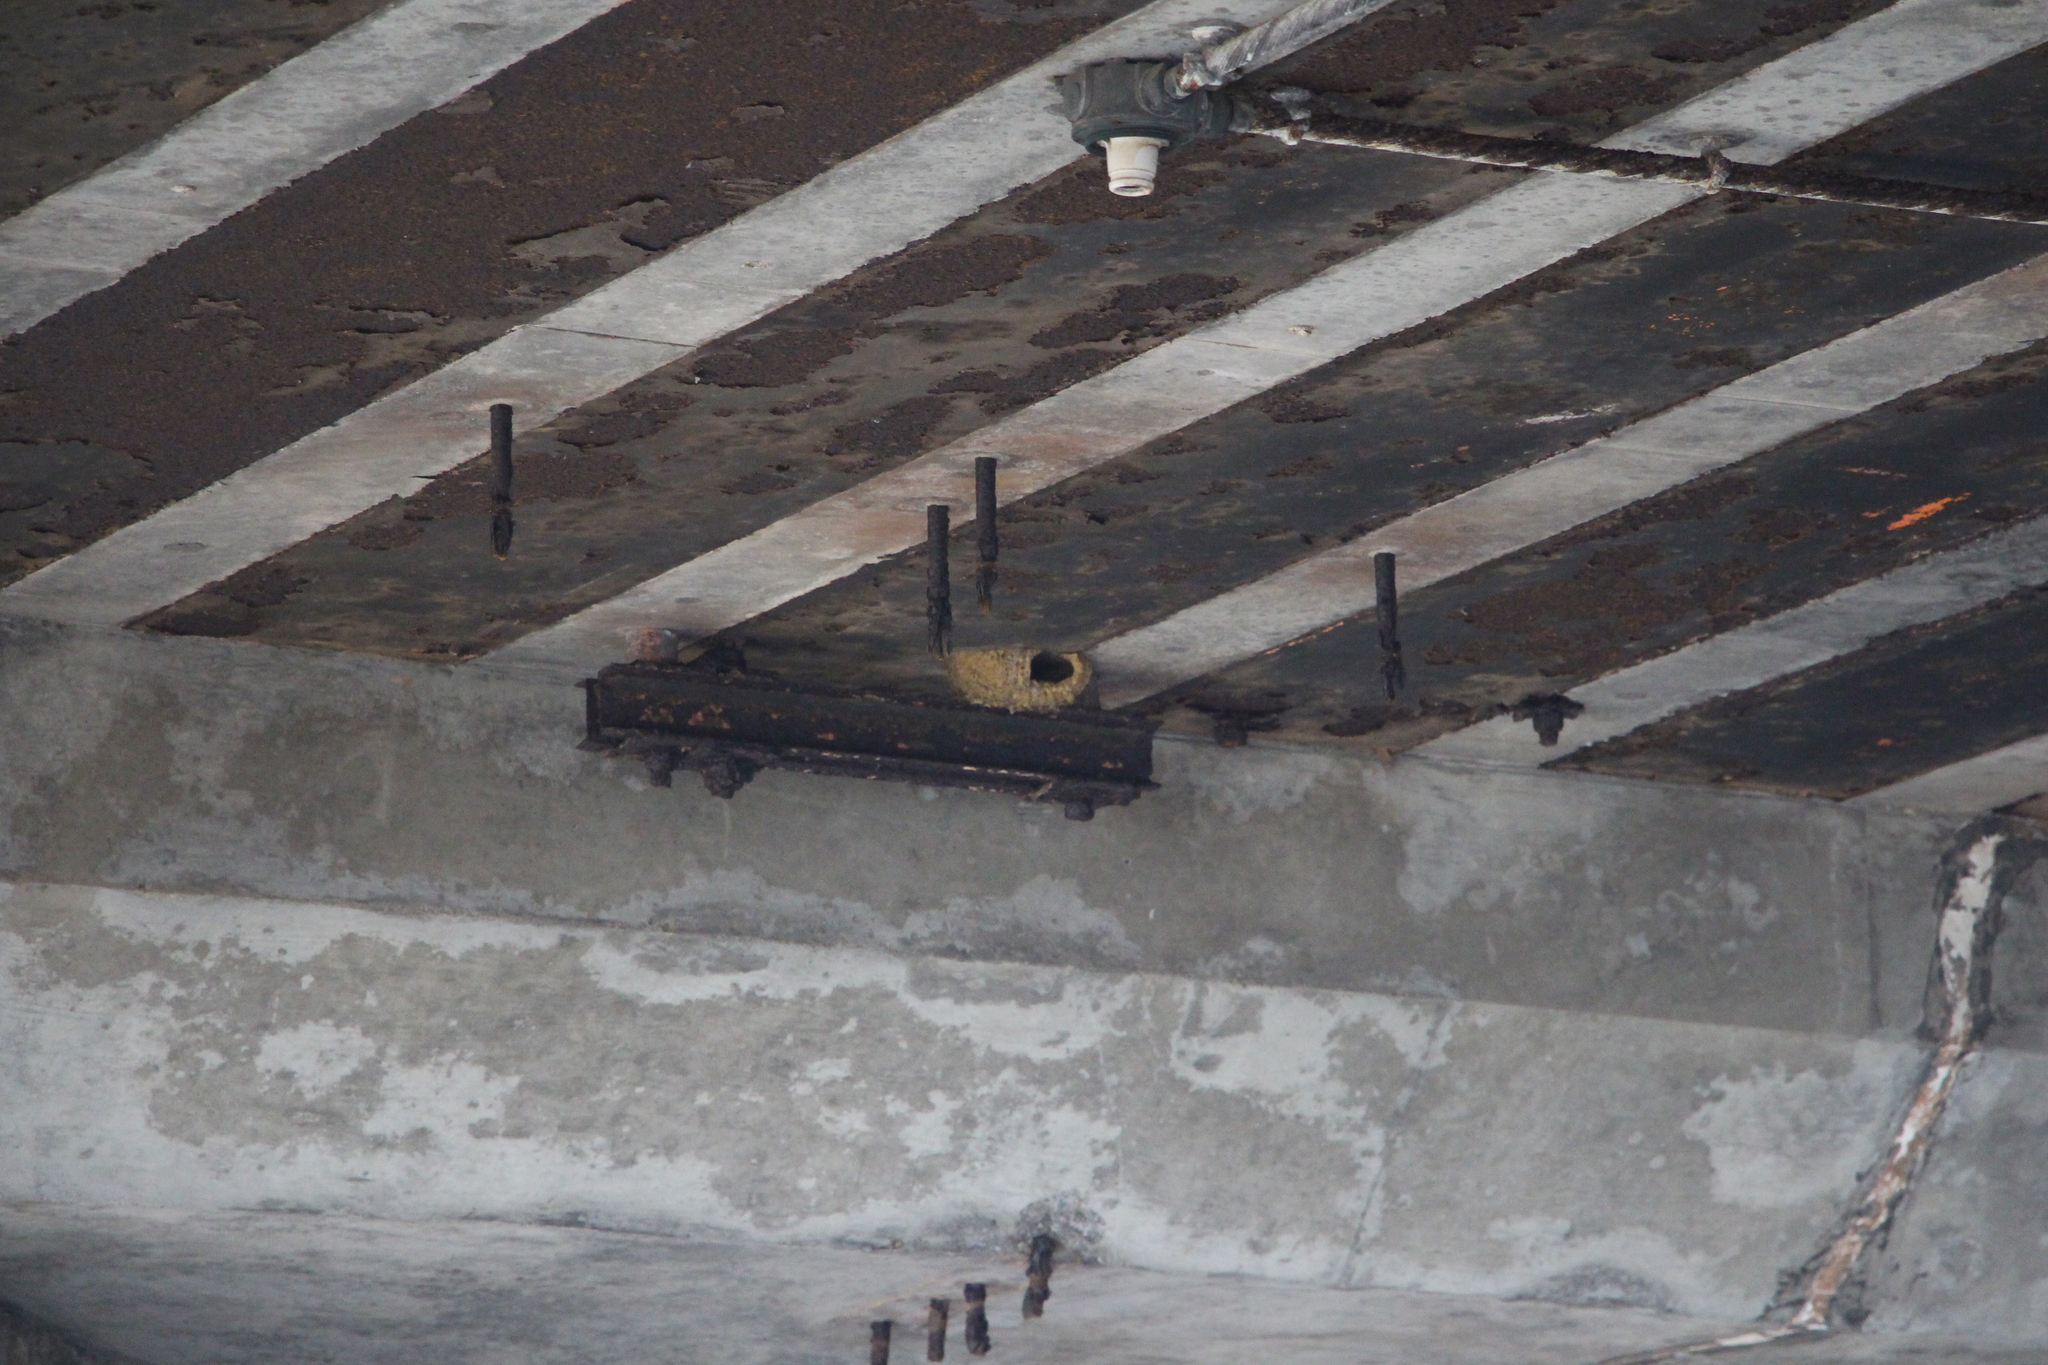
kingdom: Animalia
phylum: Chordata
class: Aves
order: Passeriformes
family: Hirundinidae
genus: Petrochelidon
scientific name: Petrochelidon pyrrhonota
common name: American cliff swallow
